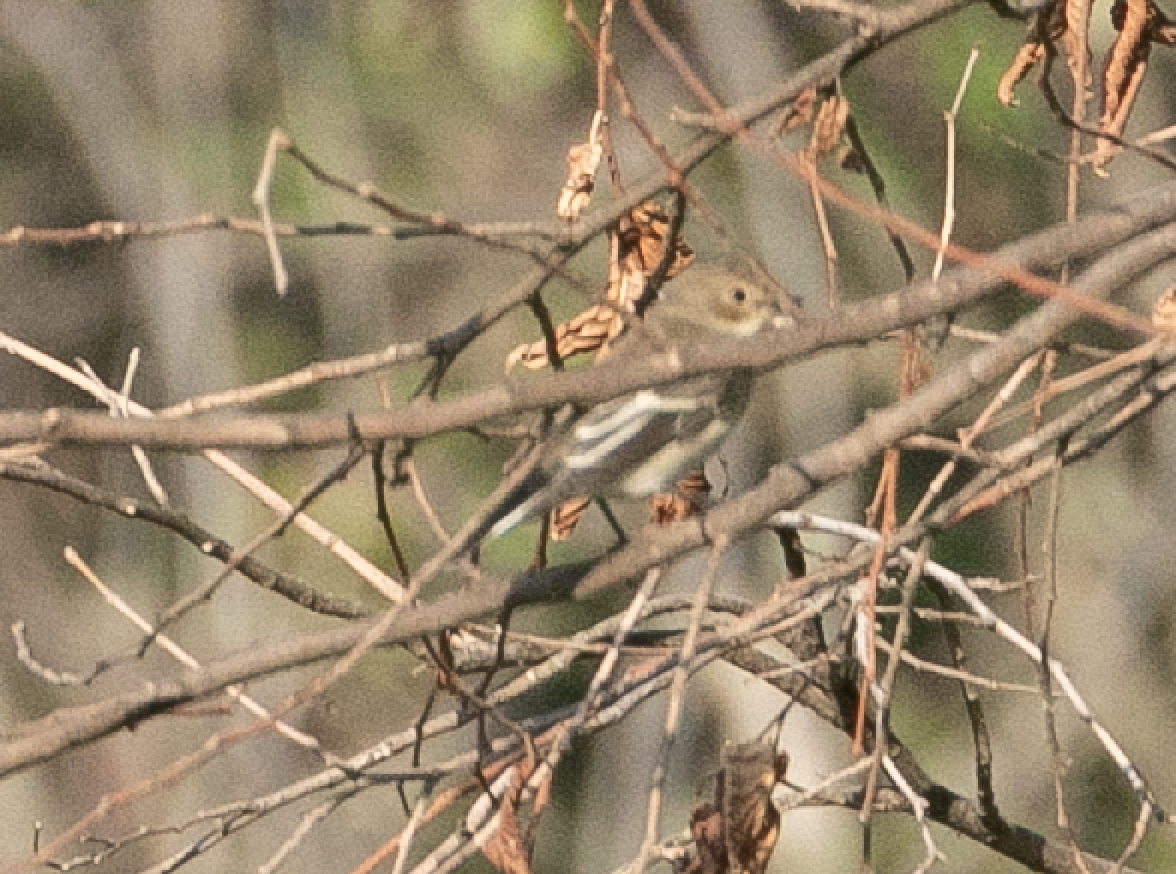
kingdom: Animalia
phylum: Chordata
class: Aves
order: Passeriformes
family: Muscicapidae
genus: Ficedula
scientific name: Ficedula hypoleuca
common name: European pied flycatcher
